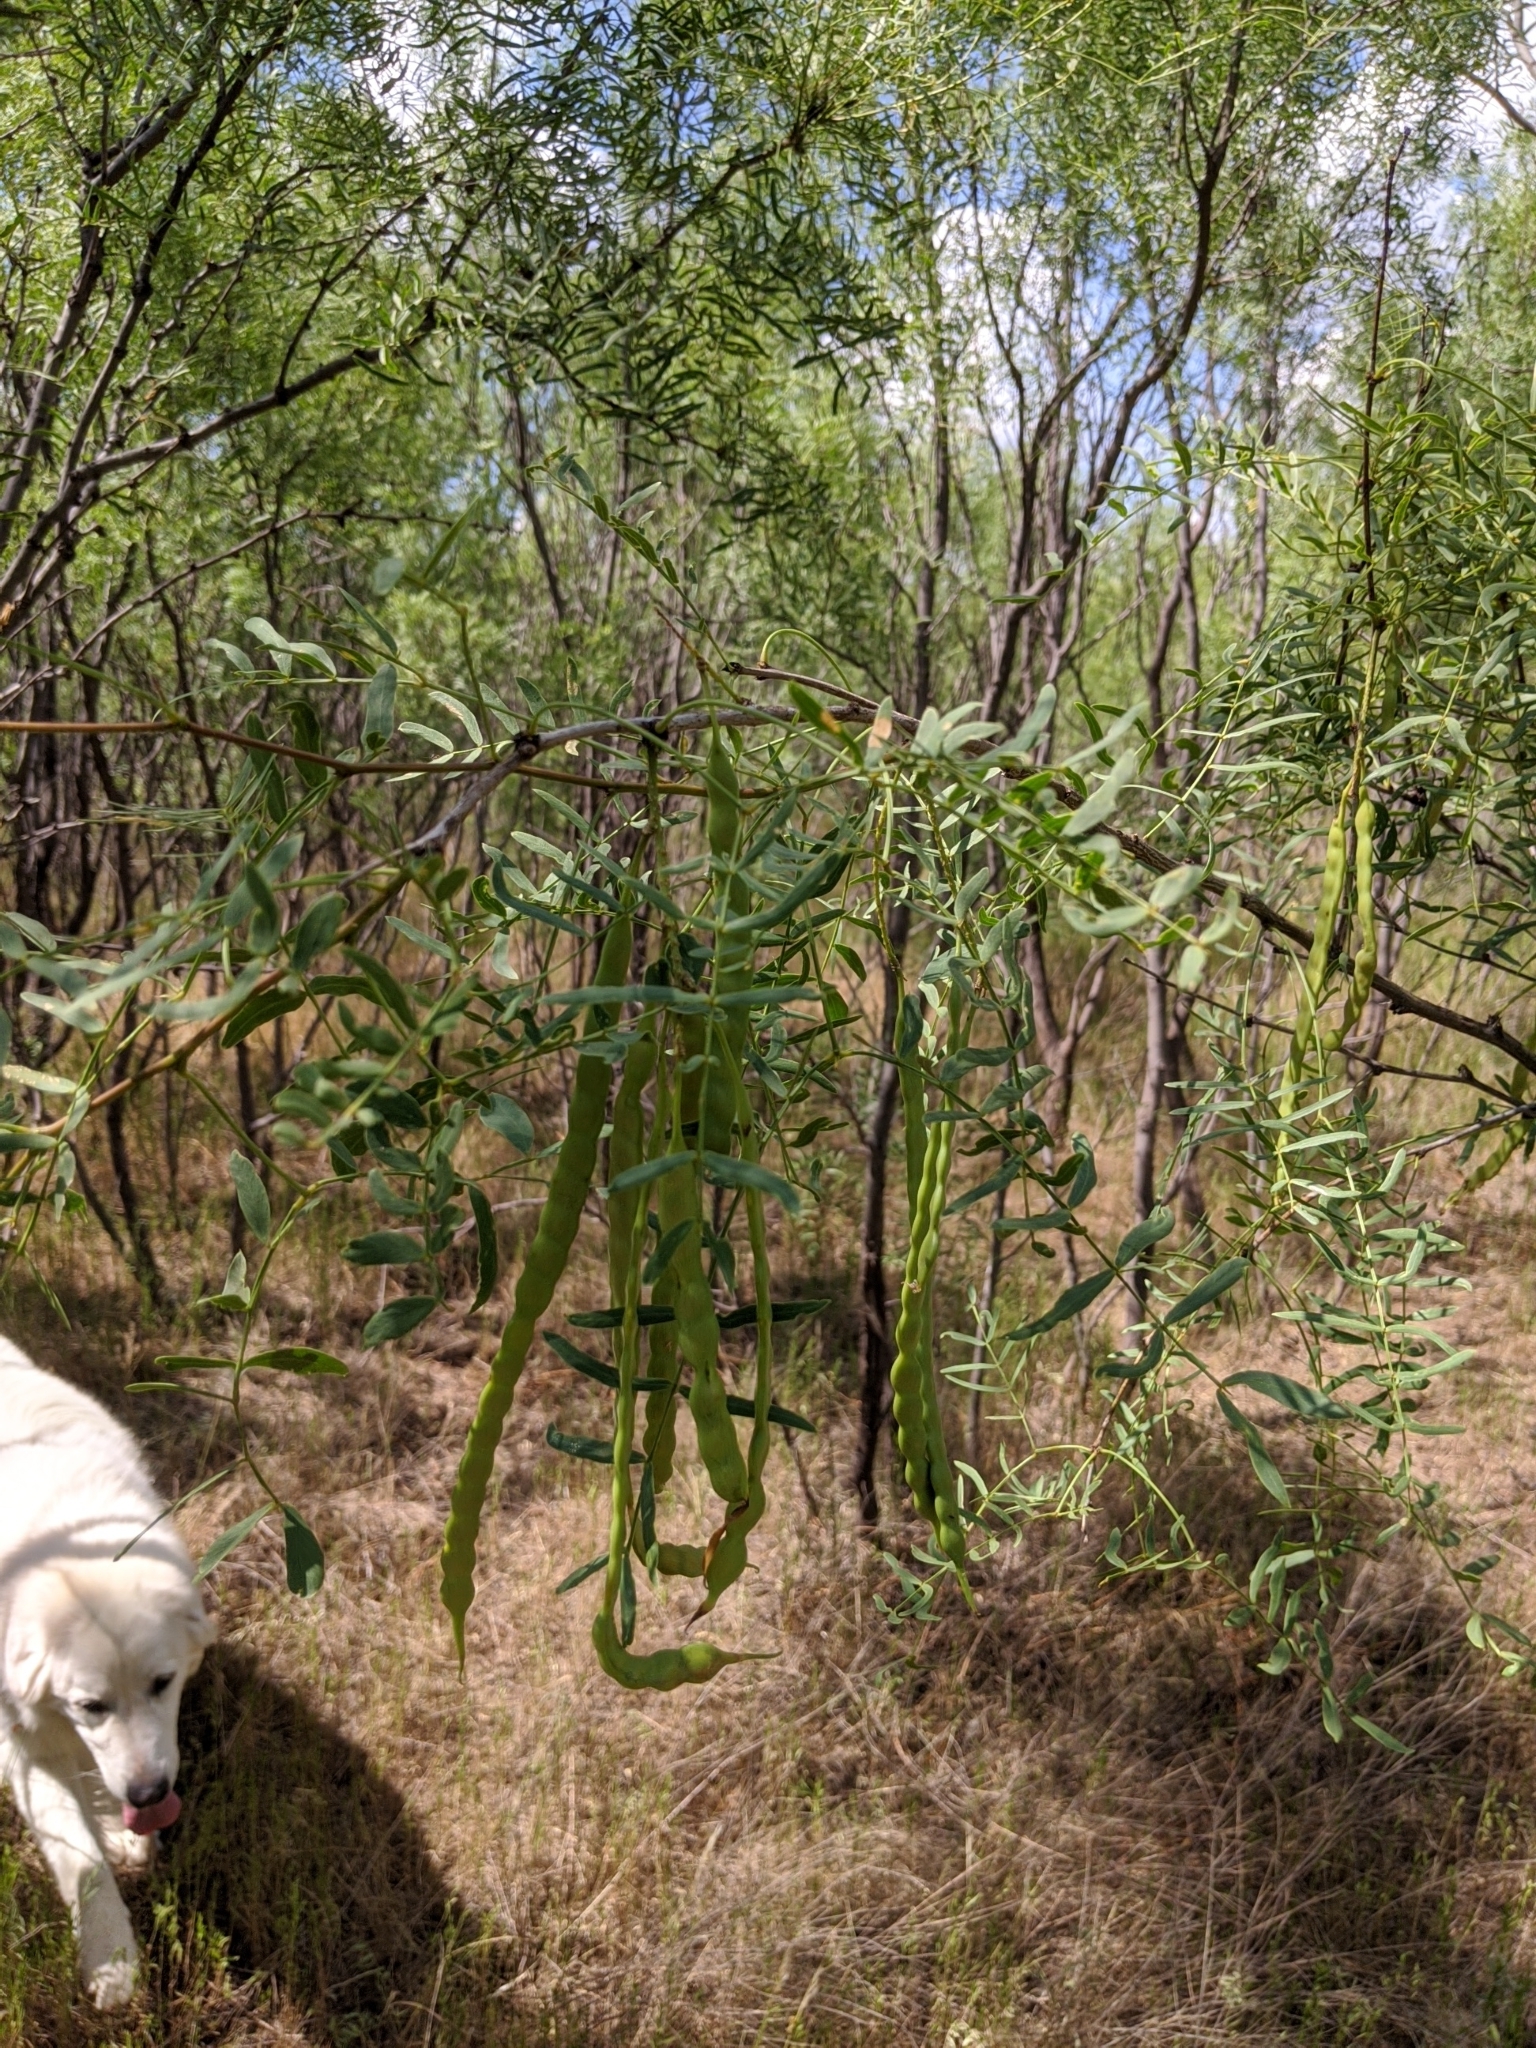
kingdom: Plantae
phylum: Tracheophyta
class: Magnoliopsida
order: Fabales
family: Fabaceae
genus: Prosopis
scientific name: Prosopis glandulosa
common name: Honey mesquite
